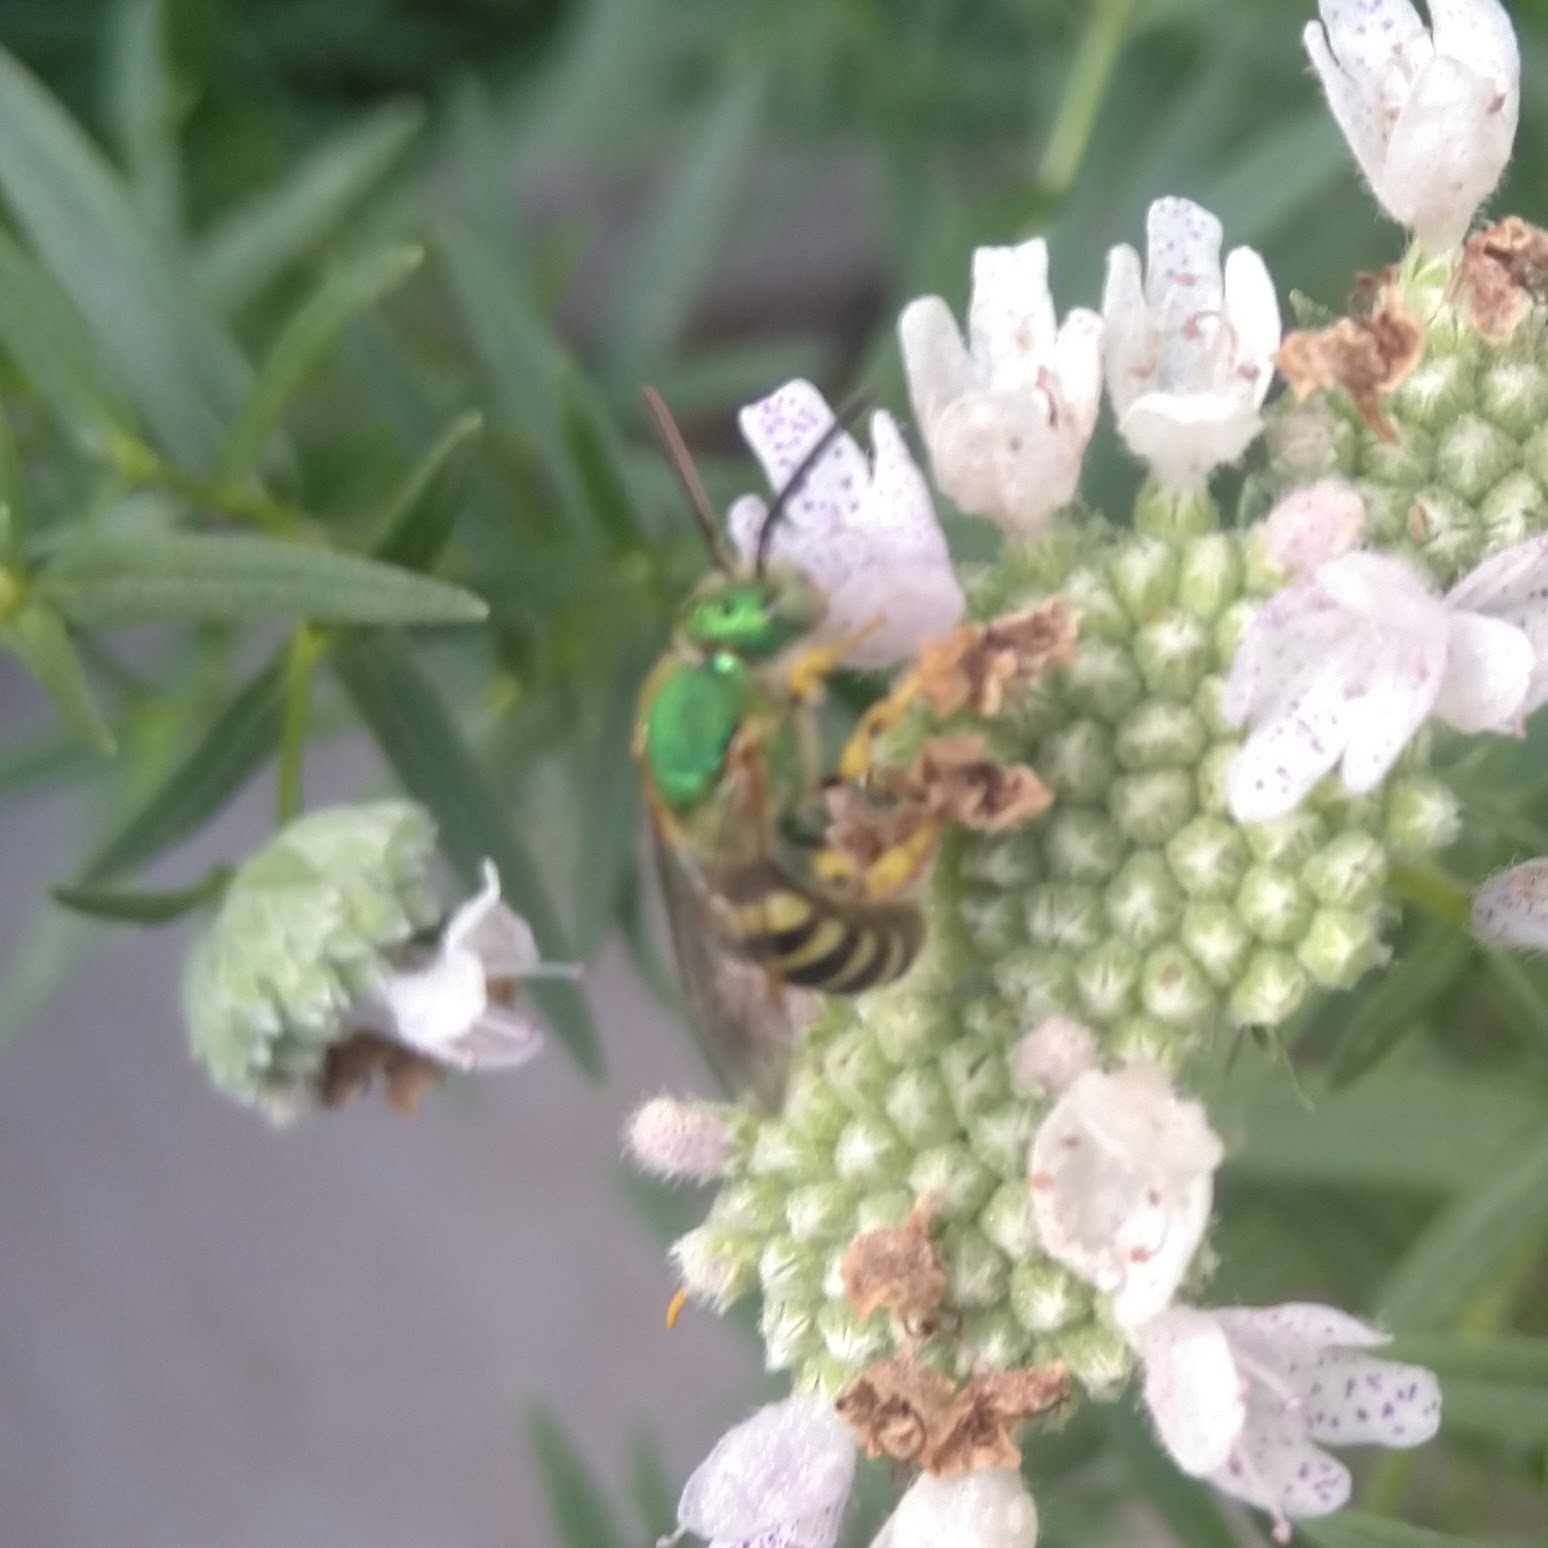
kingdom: Animalia
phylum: Arthropoda
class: Insecta
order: Hymenoptera
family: Halictidae
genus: Agapostemon
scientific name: Agapostemon
